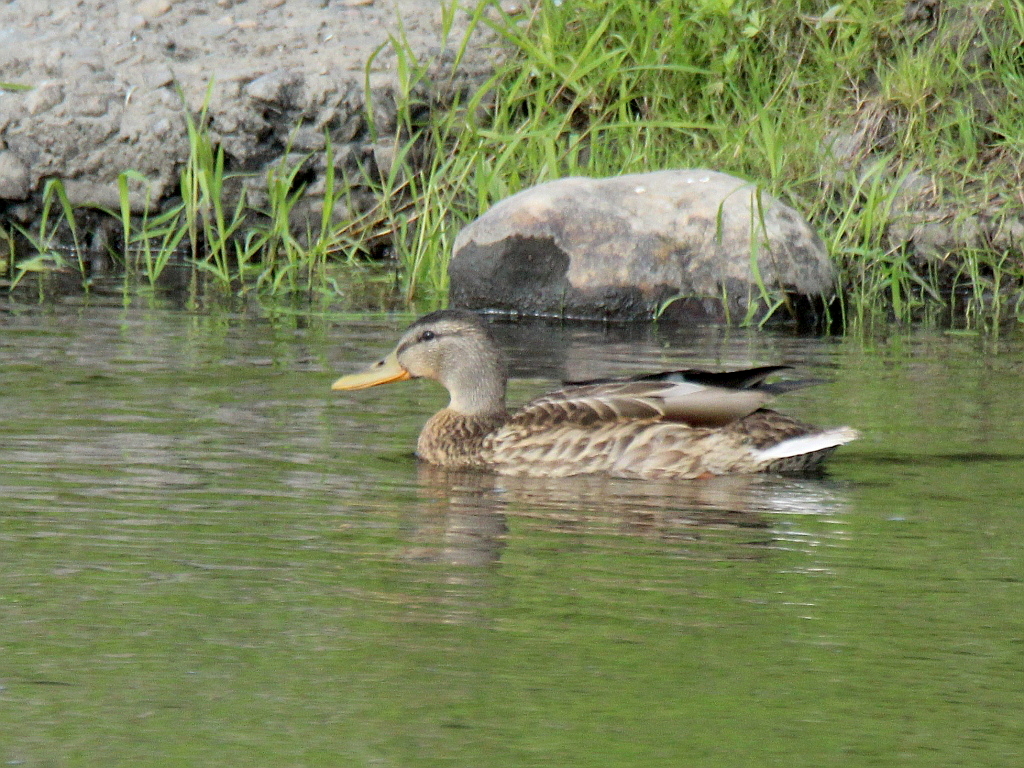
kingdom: Animalia
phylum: Chordata
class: Aves
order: Anseriformes
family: Anatidae
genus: Anas
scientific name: Anas platyrhynchos
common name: Mallard
